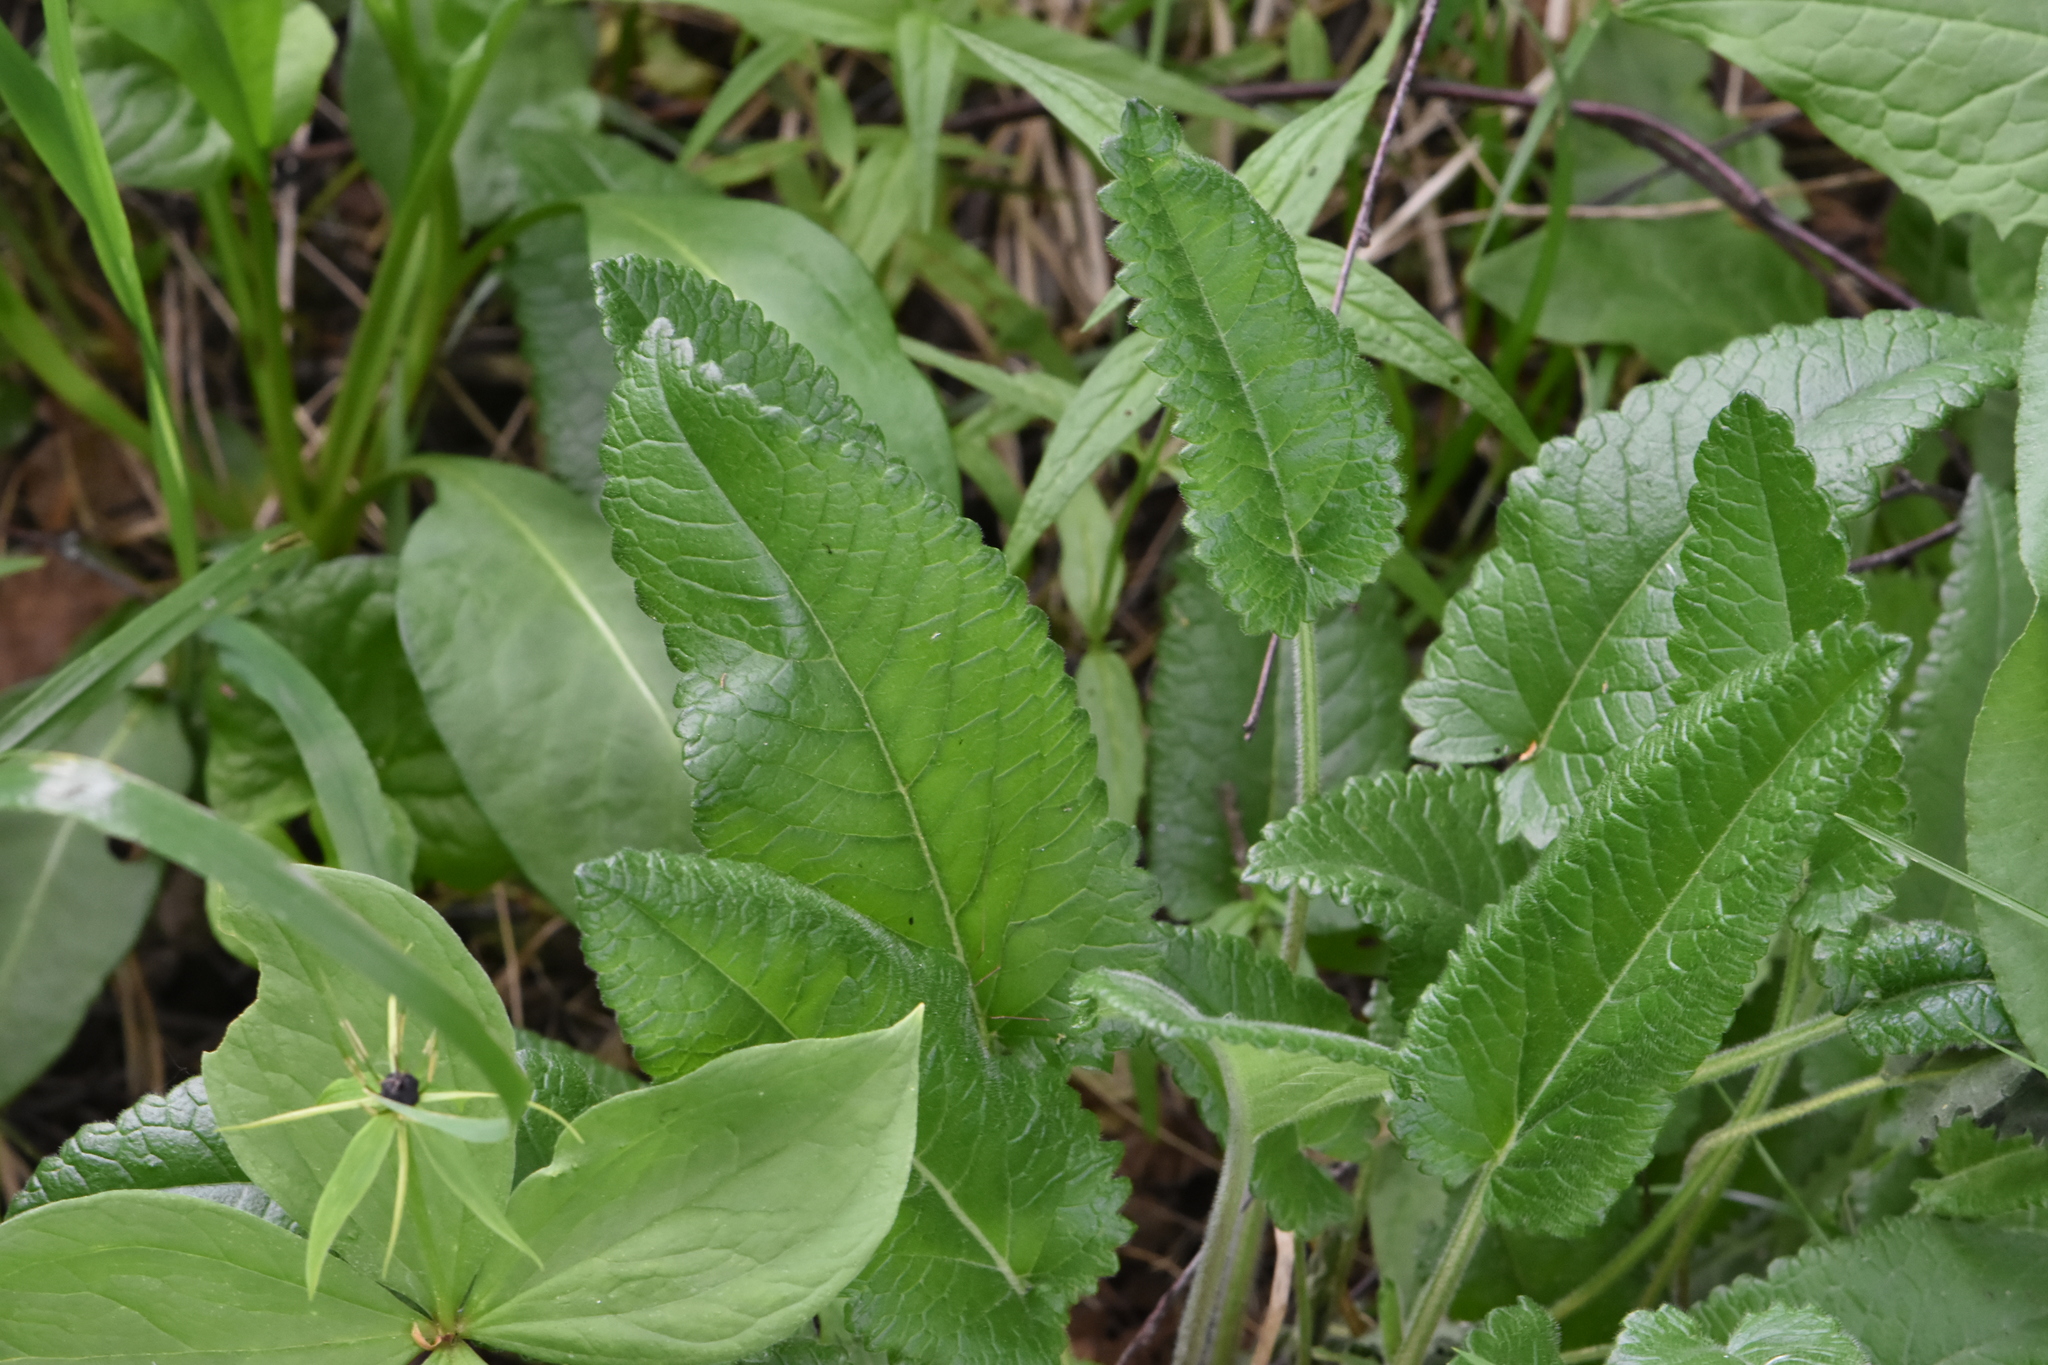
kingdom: Plantae
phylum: Tracheophyta
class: Magnoliopsida
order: Lamiales
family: Lamiaceae
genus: Betonica
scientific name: Betonica officinalis
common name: Bishop's-wort
